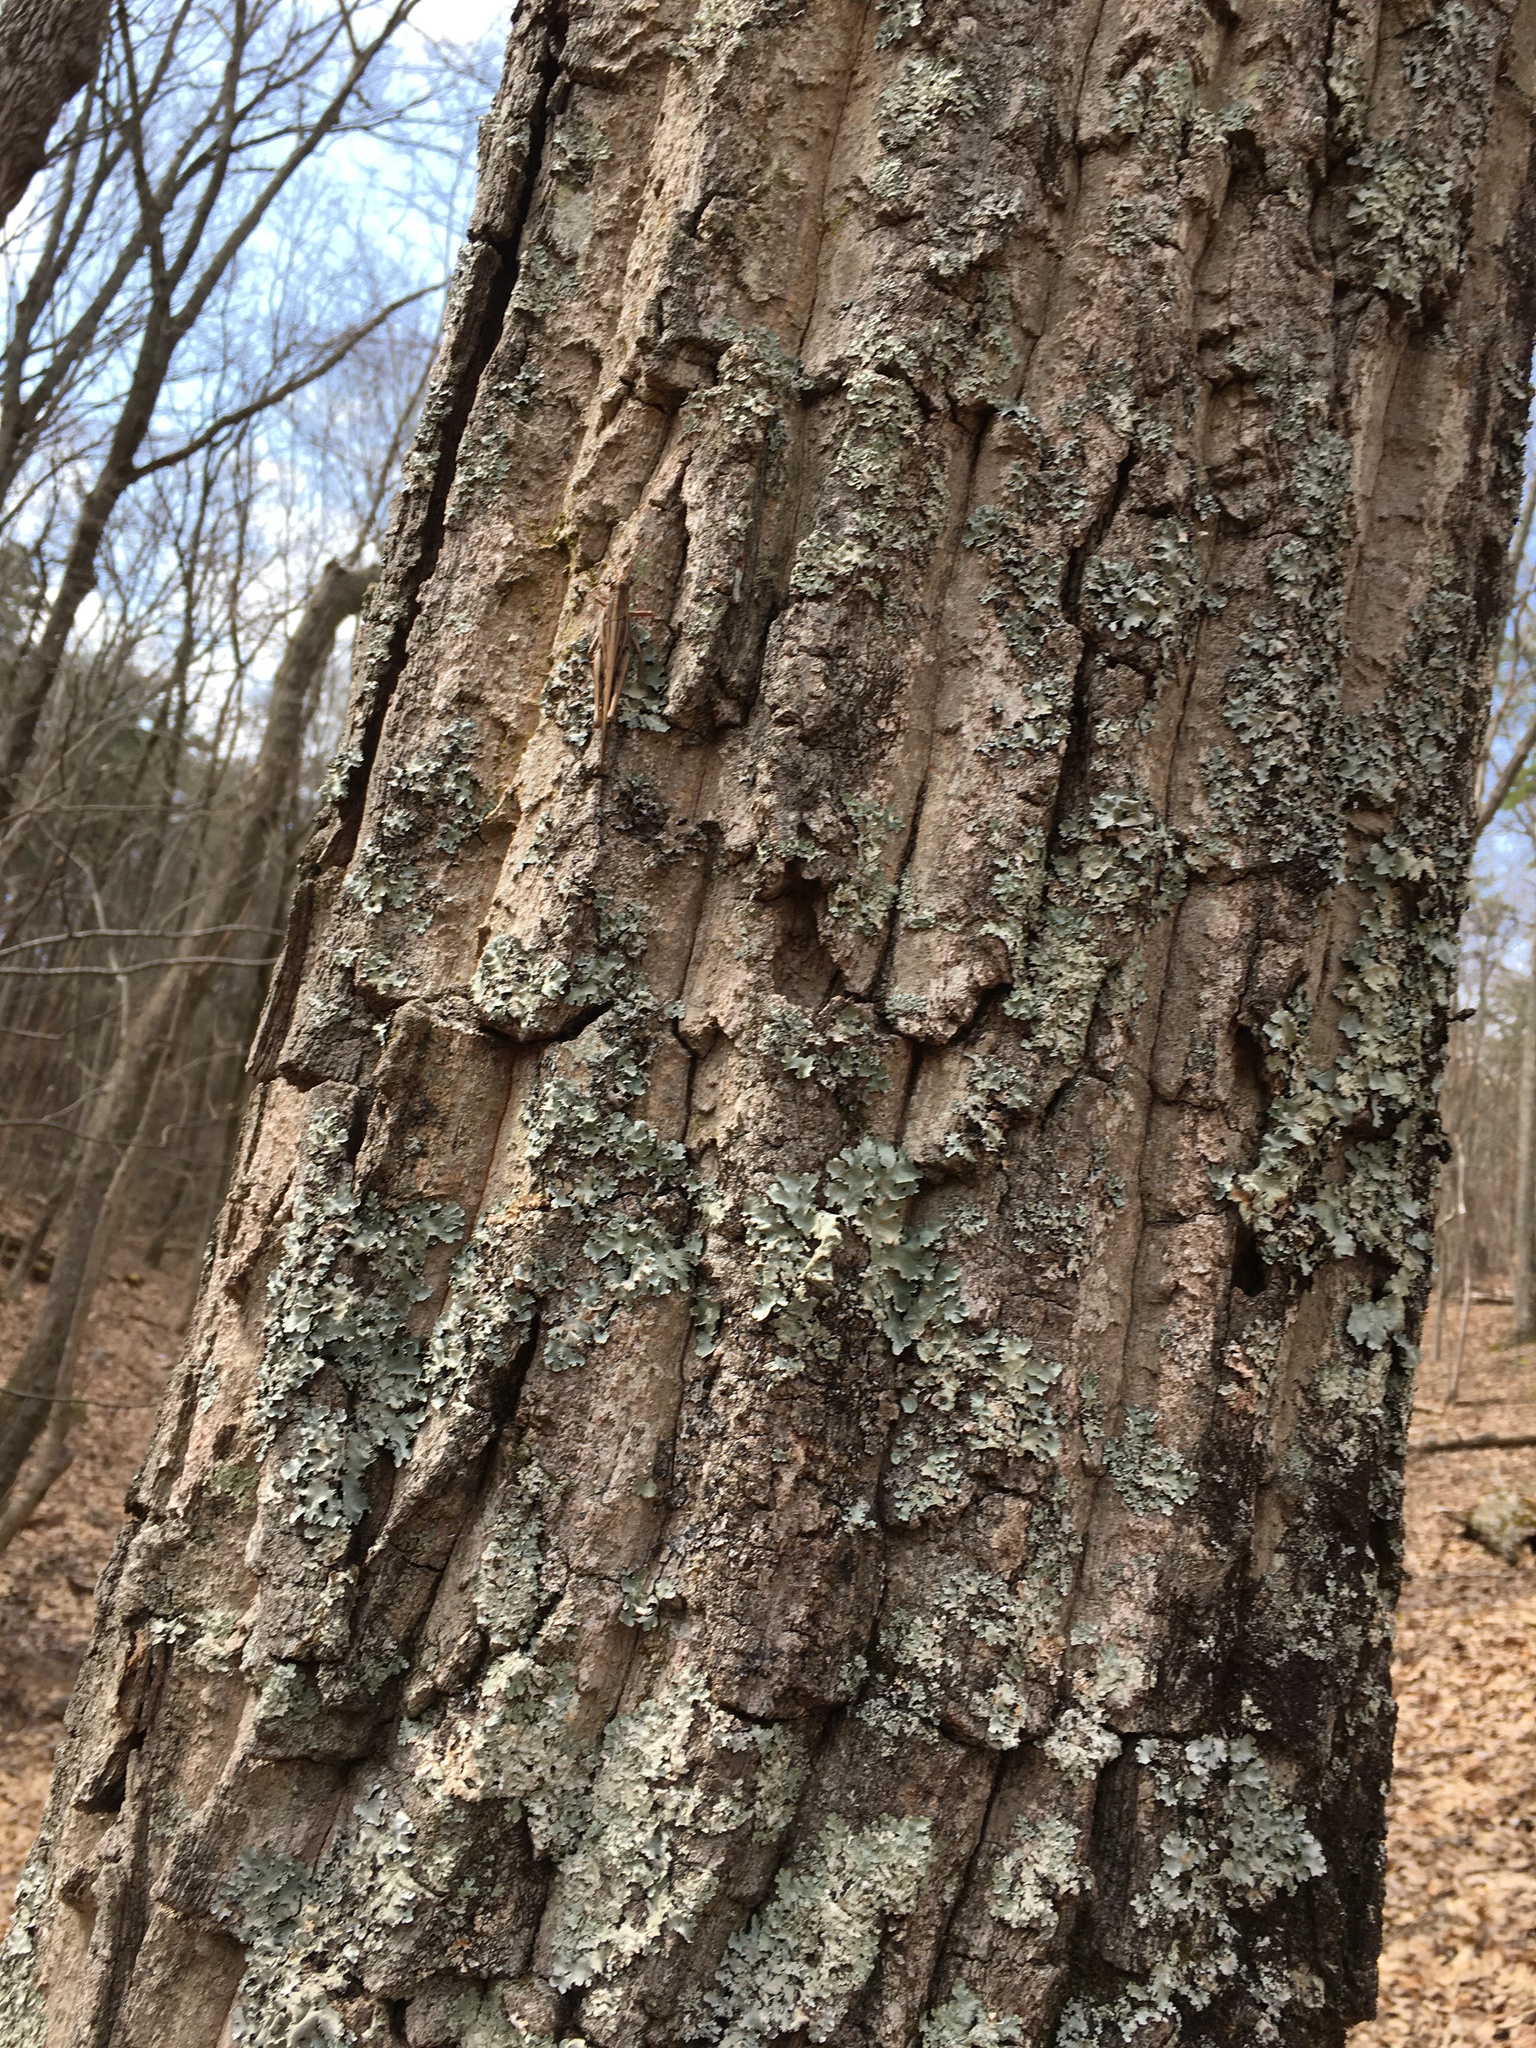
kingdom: Animalia
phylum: Arthropoda
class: Insecta
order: Orthoptera
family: Acrididae
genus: Schistocerca
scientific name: Schistocerca americana
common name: American bird locust
